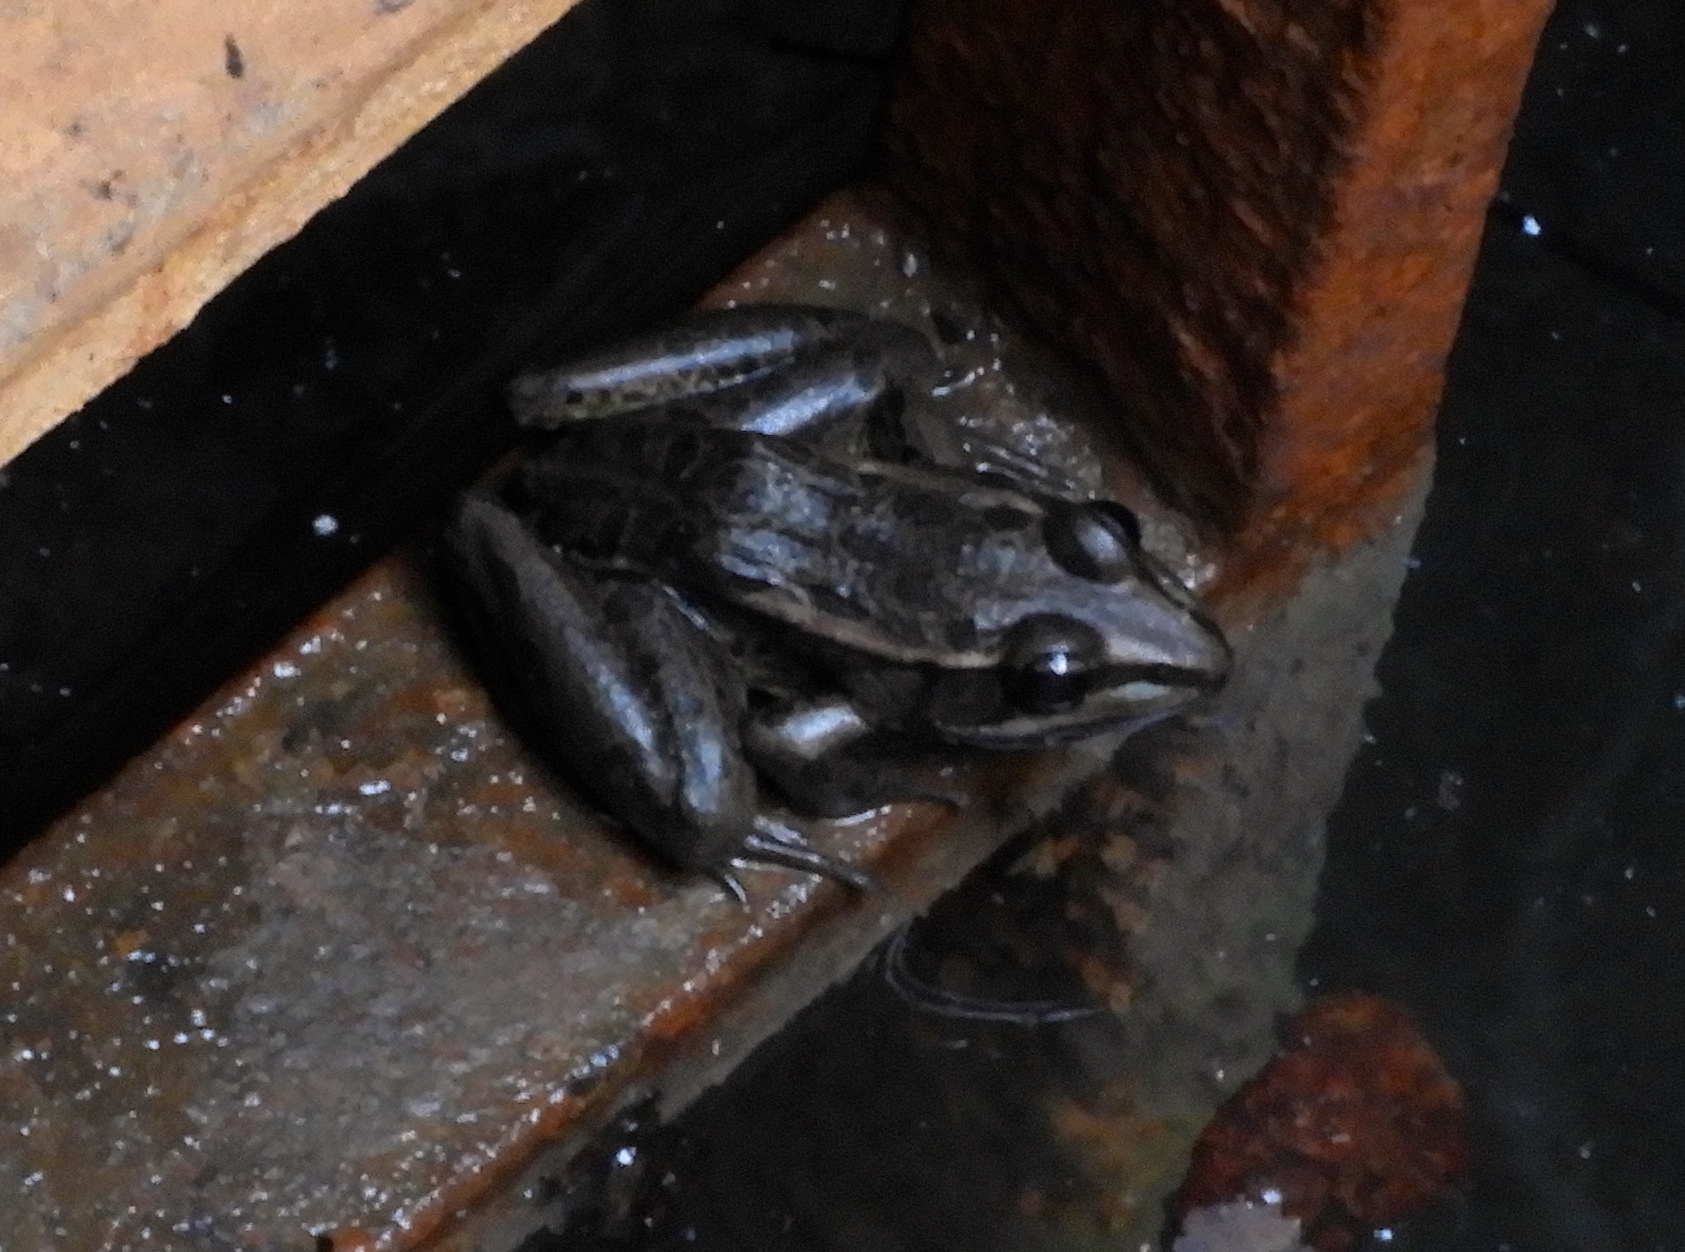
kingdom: Animalia
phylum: Chordata
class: Amphibia
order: Anura
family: Ranidae
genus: Lithobates
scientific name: Lithobates magnaocularis
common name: Northwest mexico leopard frog
